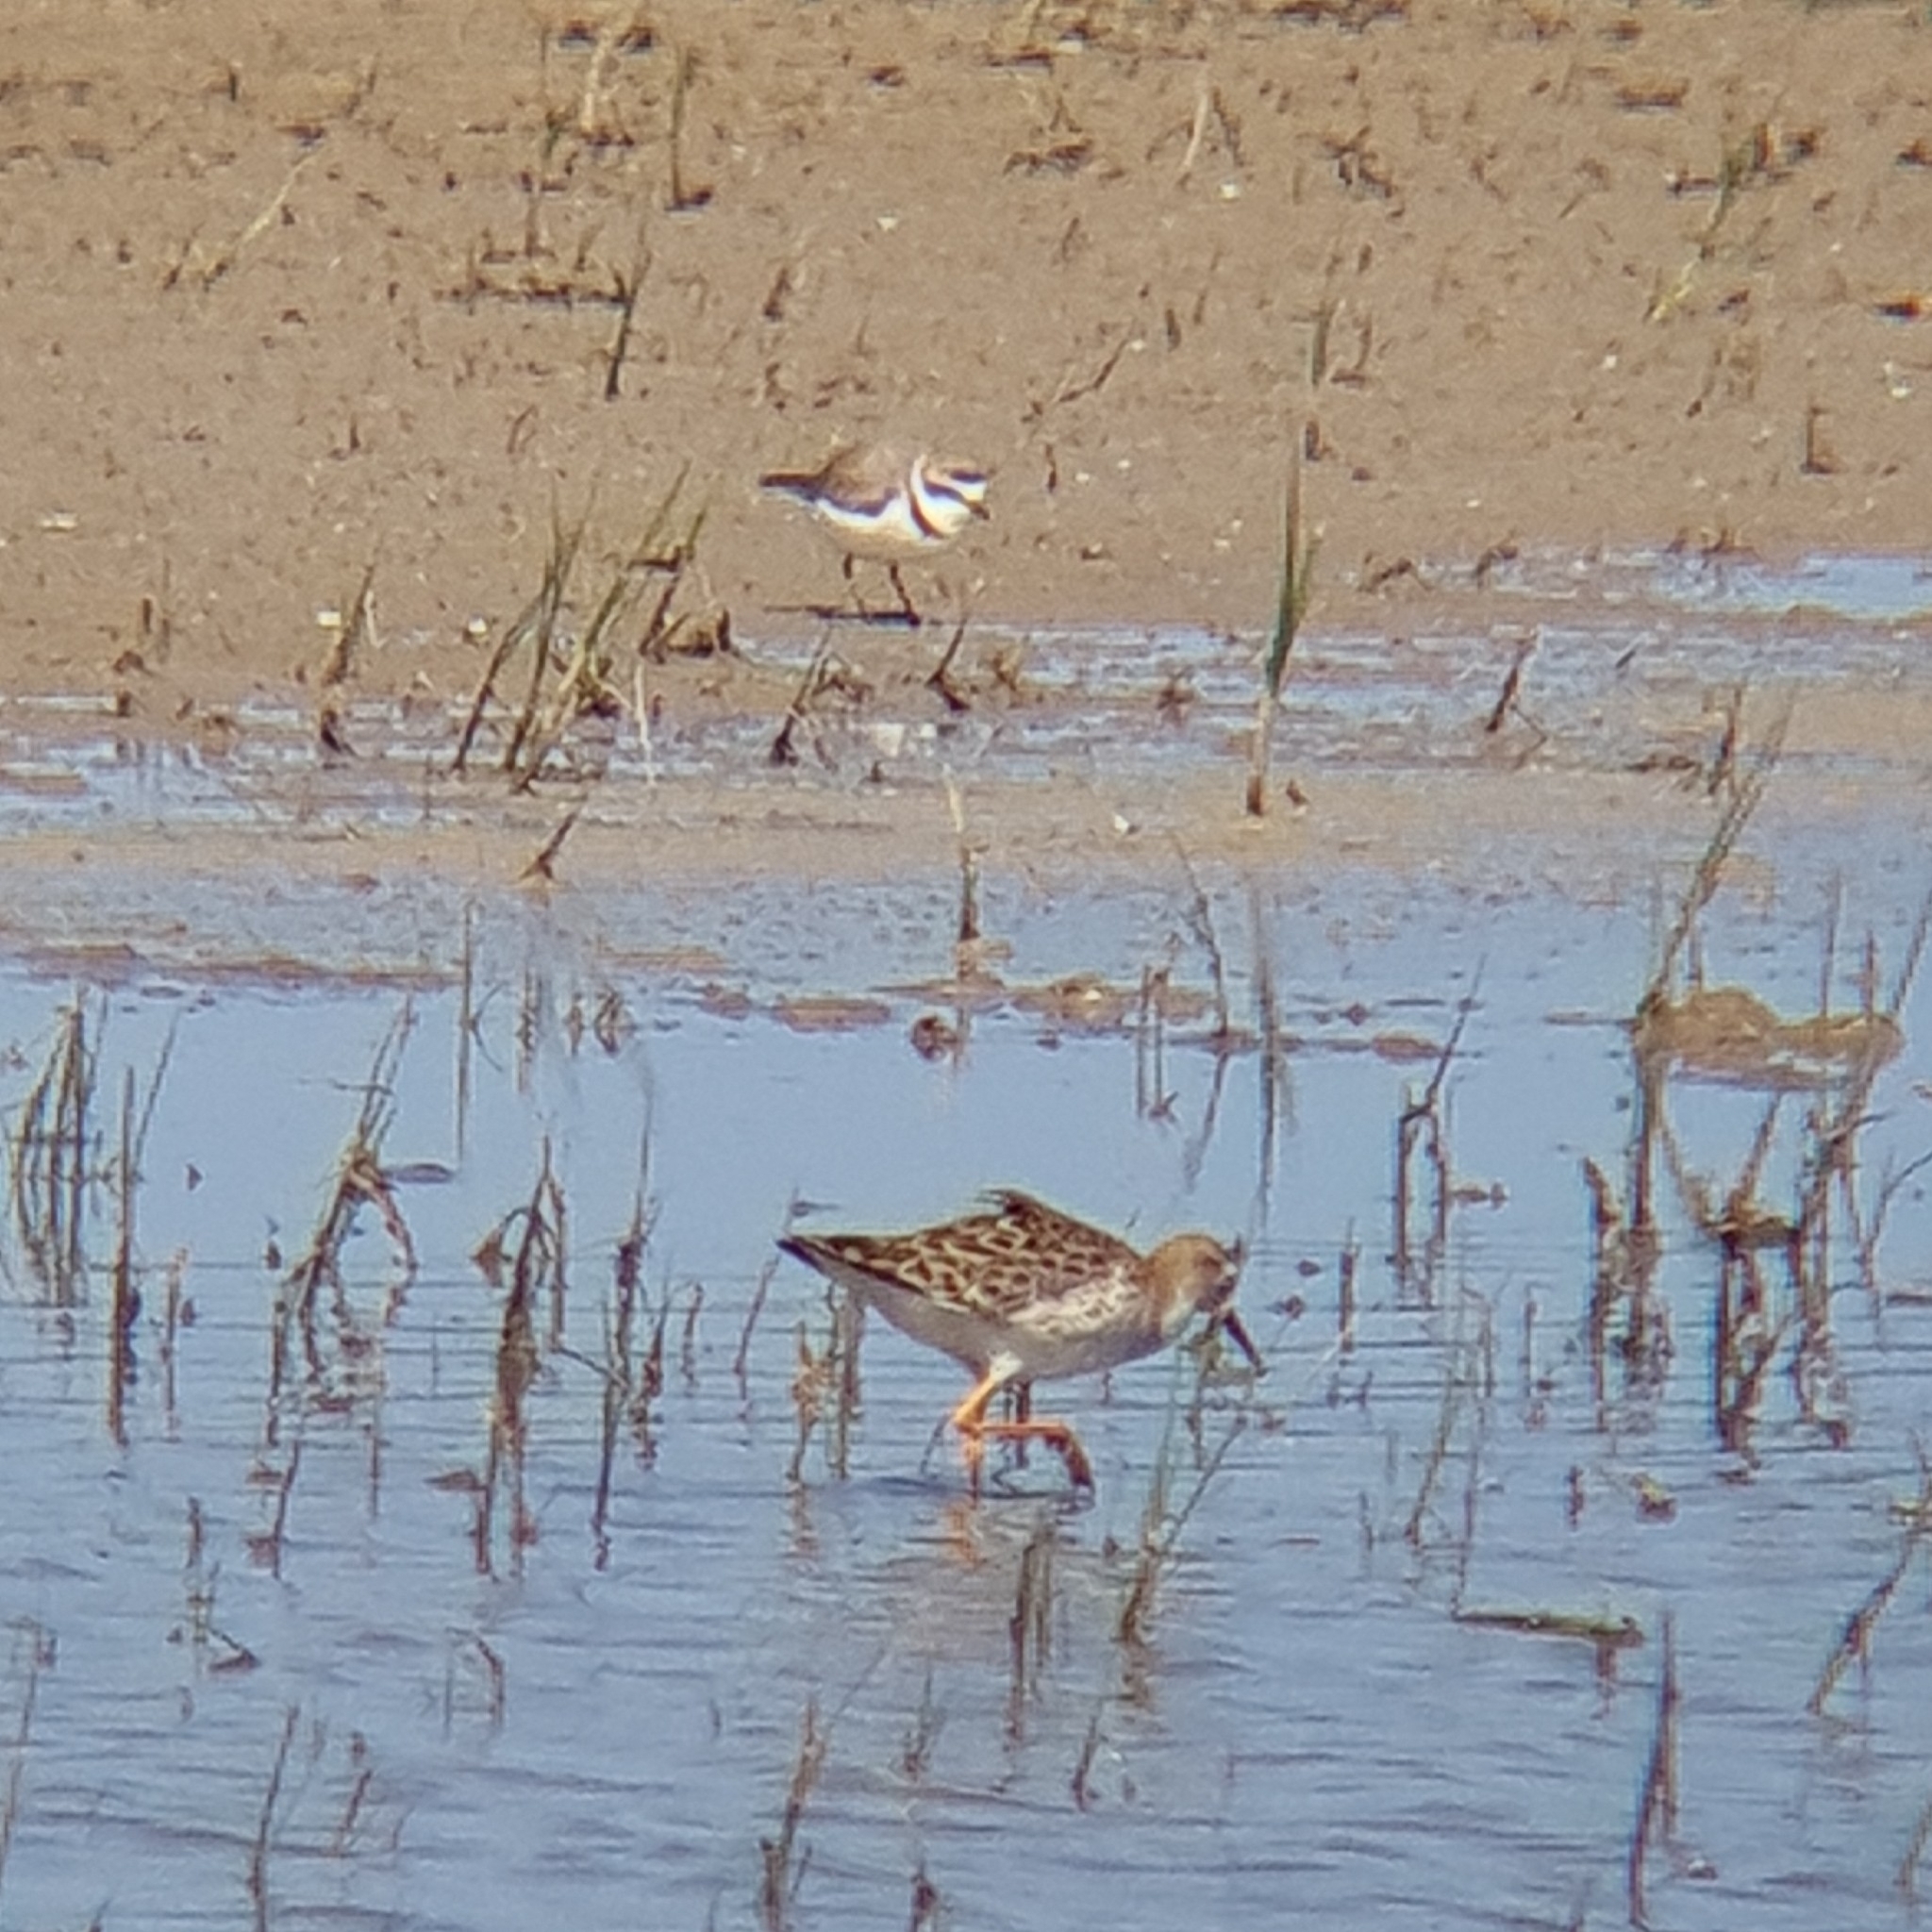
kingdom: Animalia
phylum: Chordata
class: Aves
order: Charadriiformes
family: Scolopacidae
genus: Calidris
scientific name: Calidris pugnax
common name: Ruff
